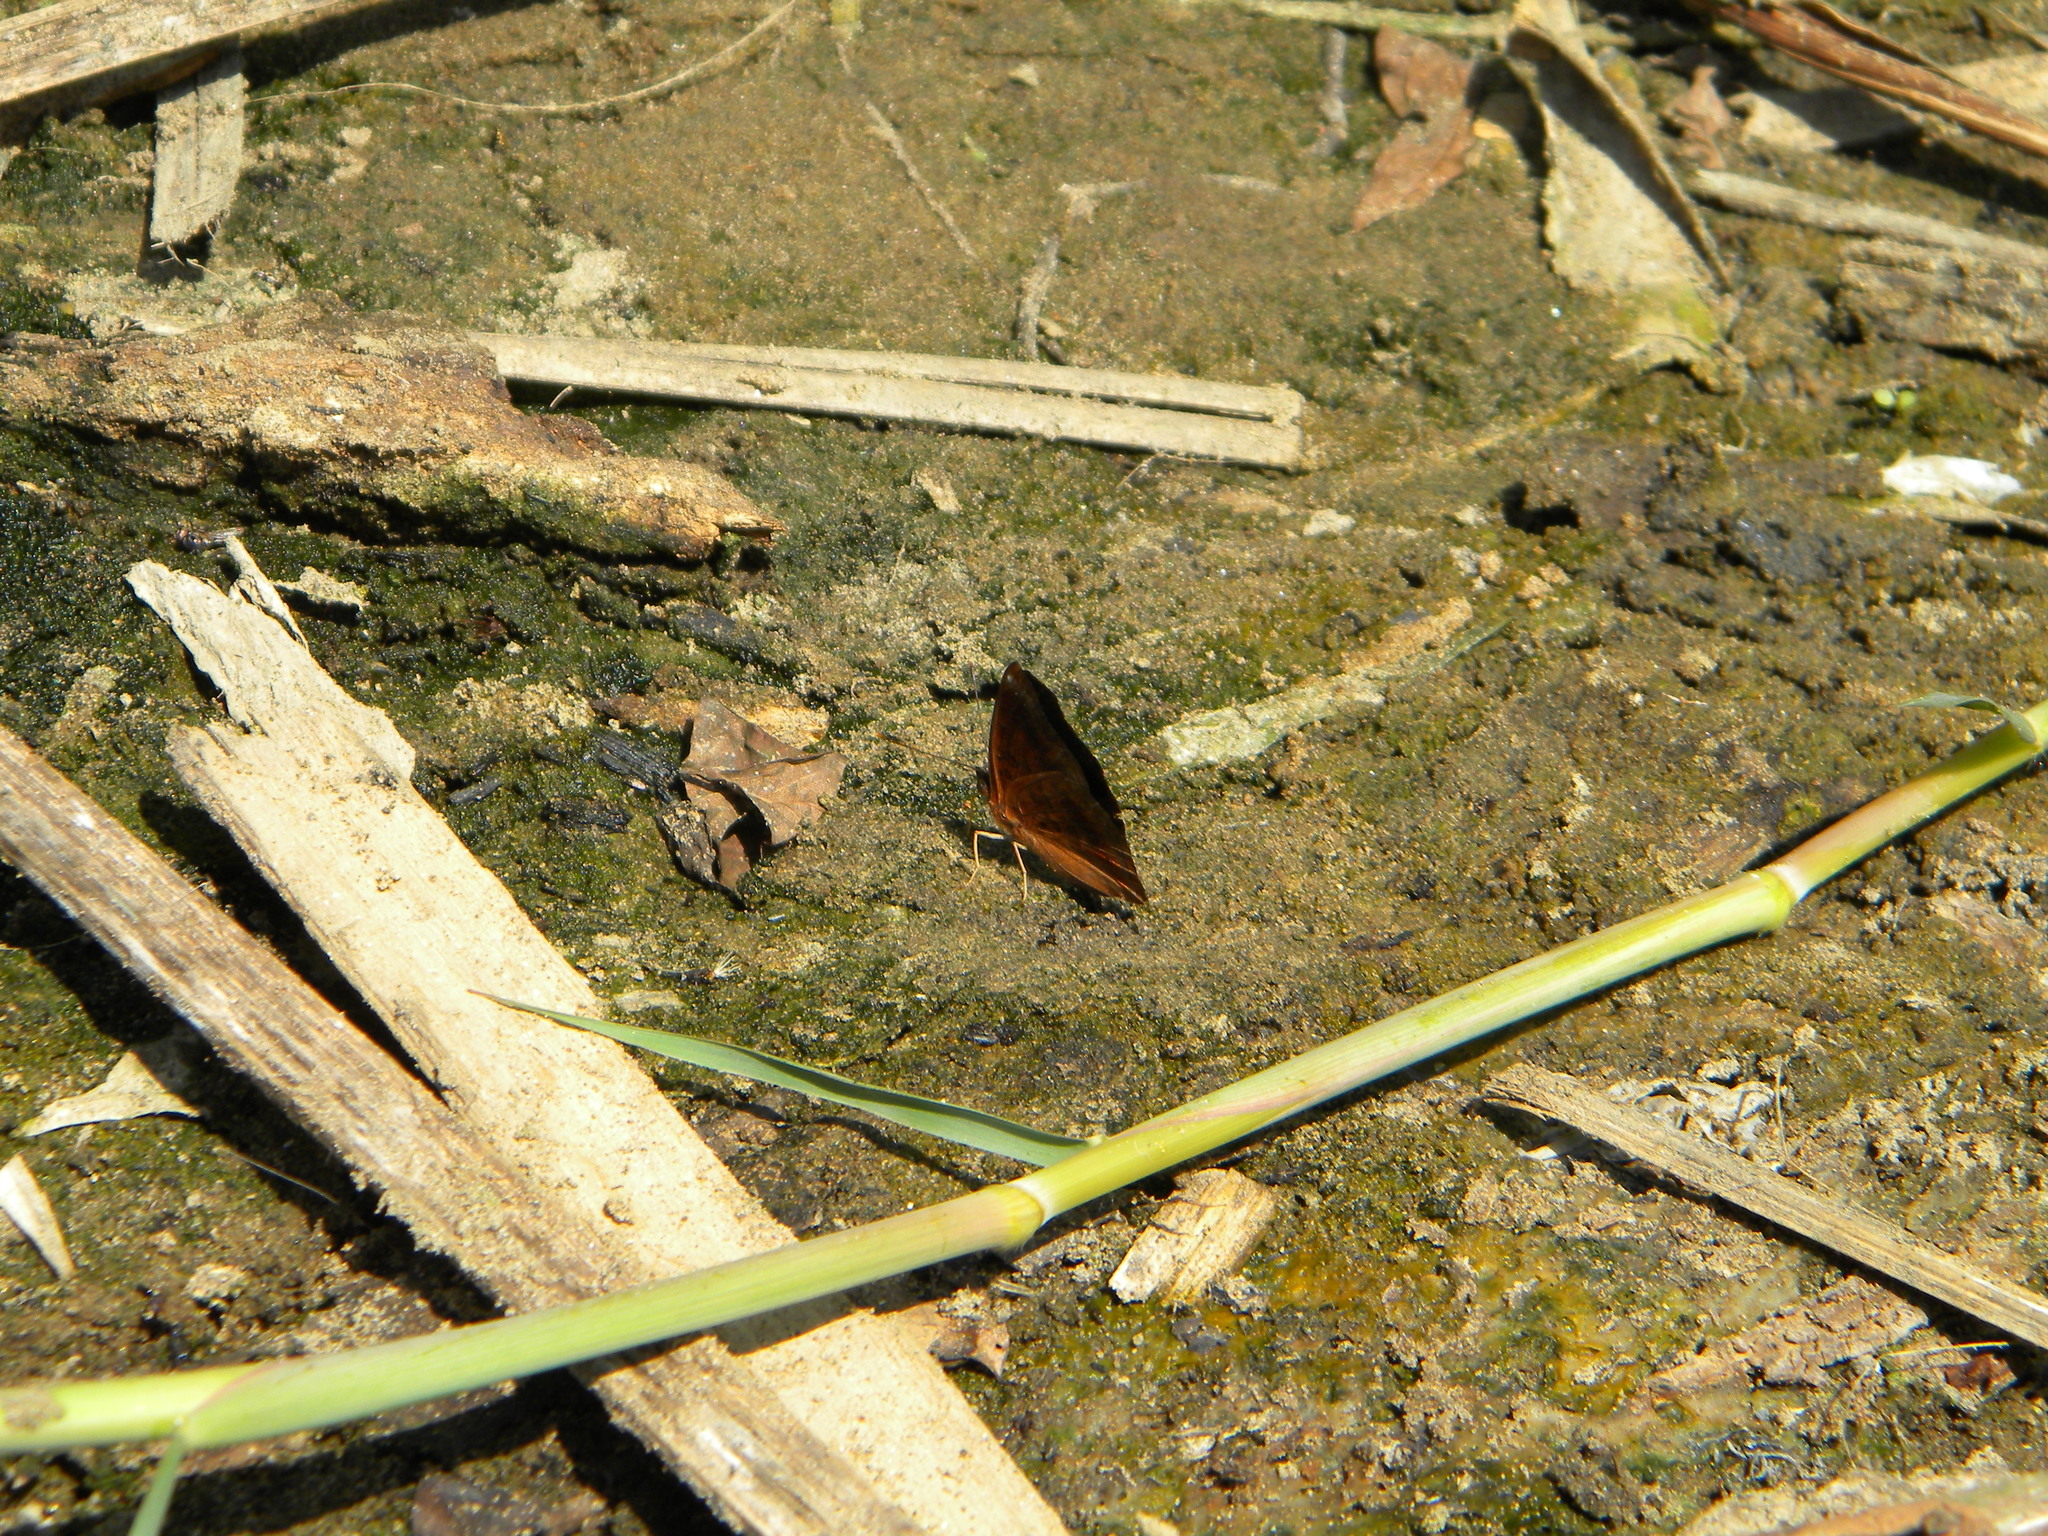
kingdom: Animalia
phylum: Arthropoda
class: Insecta
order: Lepidoptera
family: Nymphalidae
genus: Apatura
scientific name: Apatura Rohana spec
